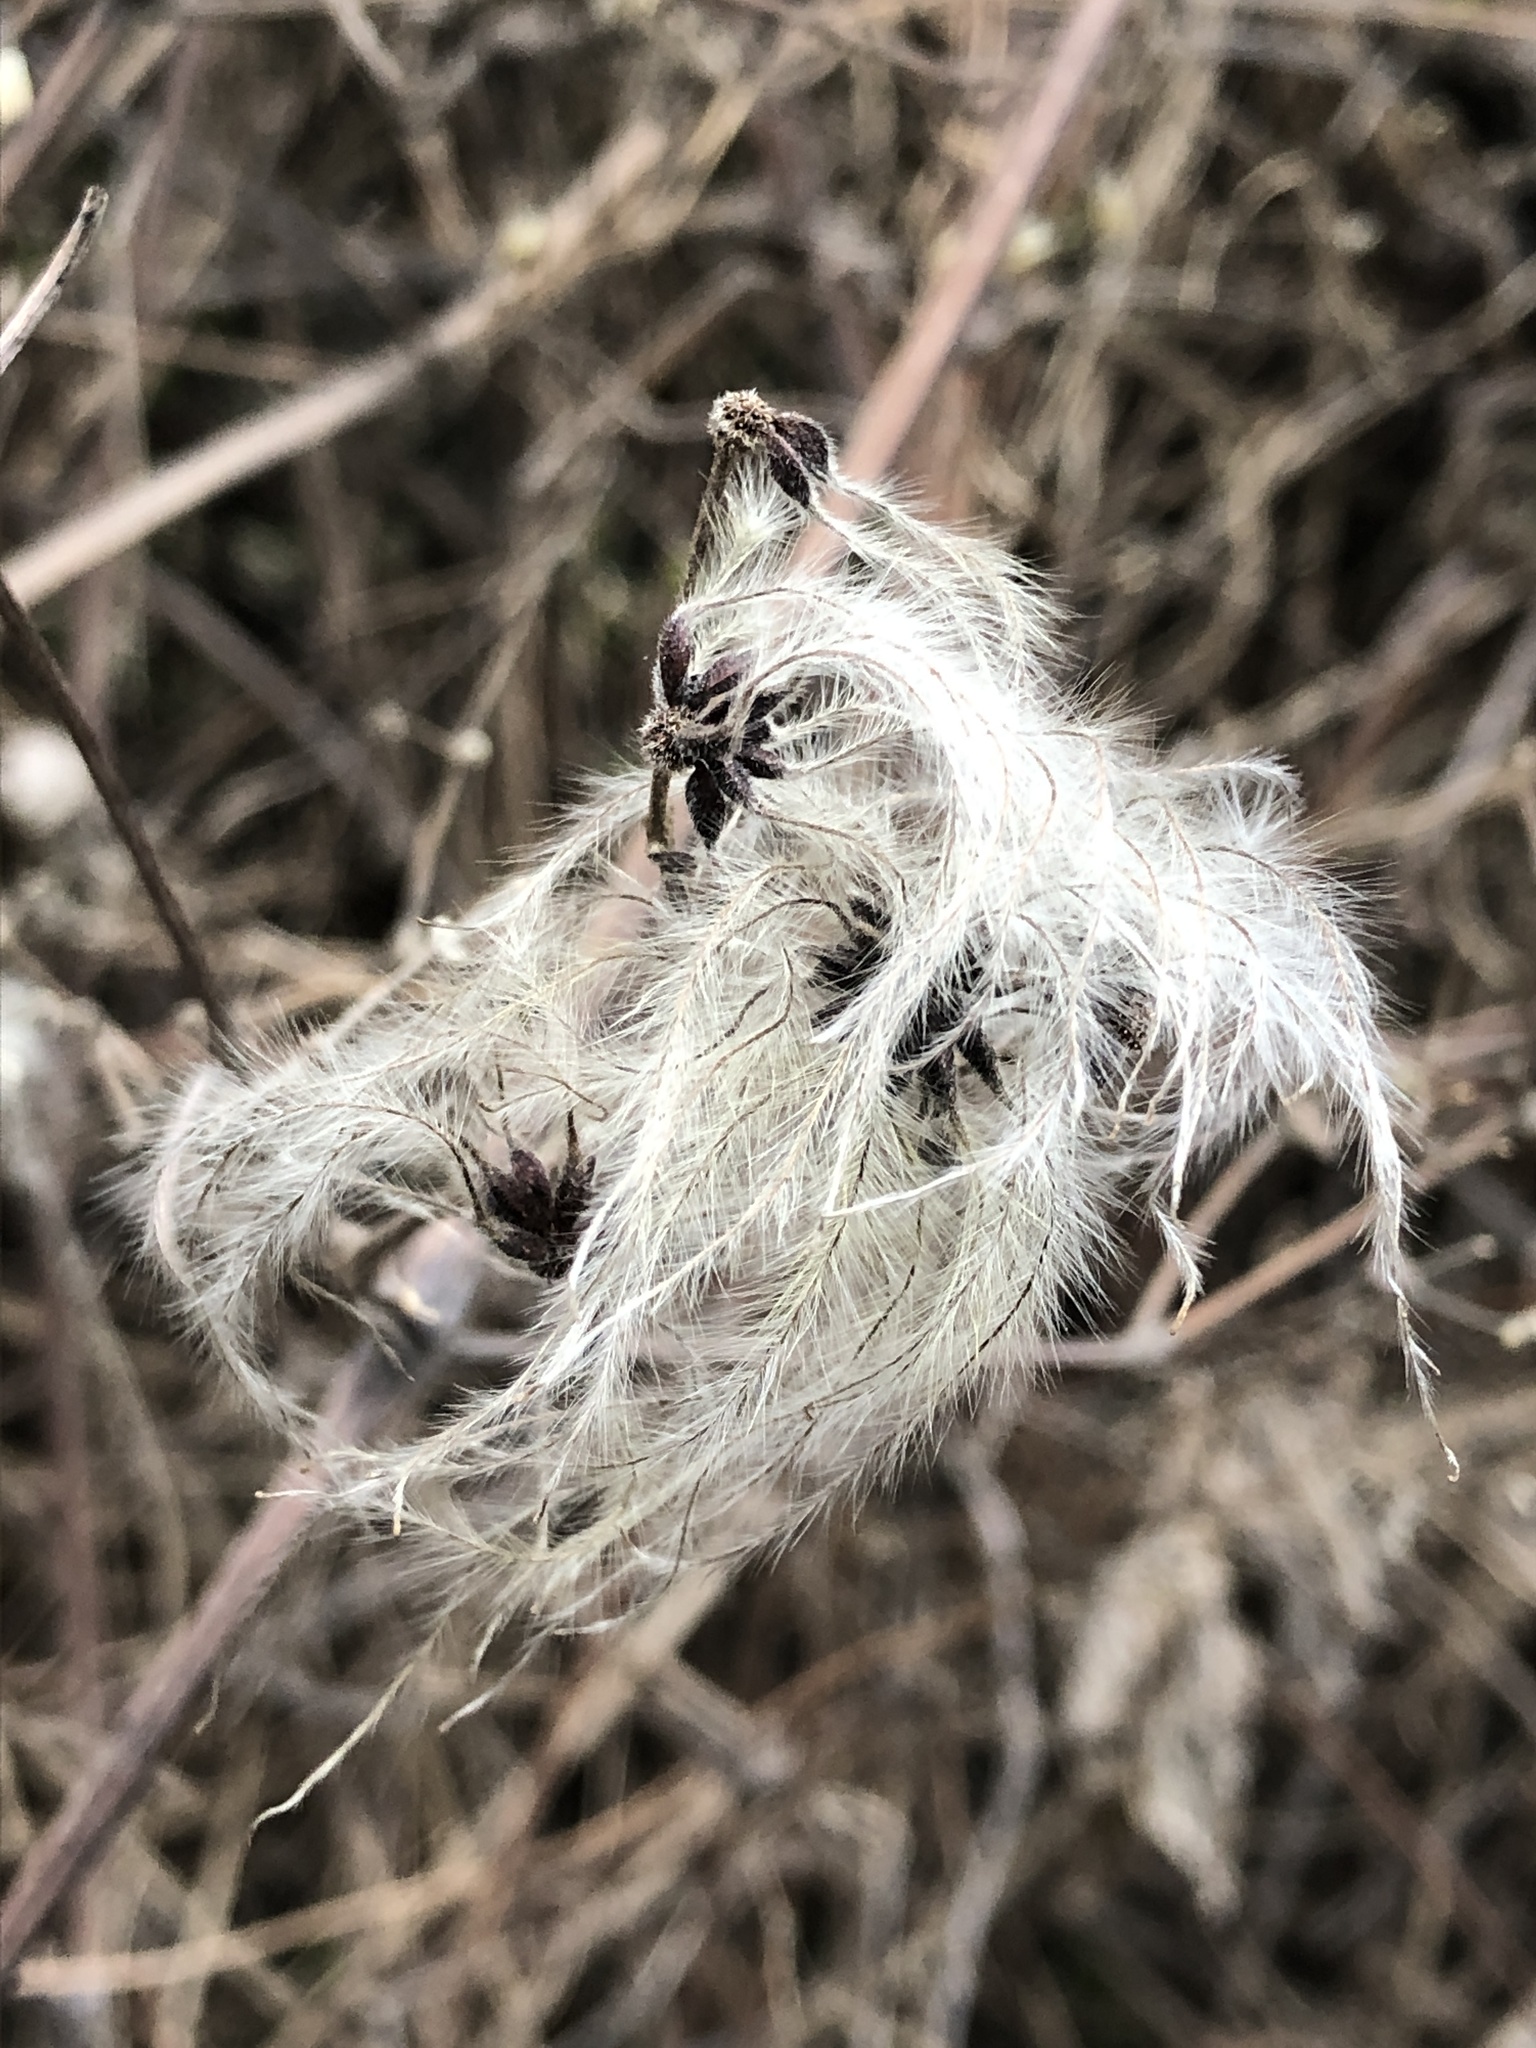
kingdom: Plantae
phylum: Tracheophyta
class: Magnoliopsida
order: Ranunculales
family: Ranunculaceae
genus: Clematis
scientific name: Clematis vitalba
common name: Evergreen clematis
